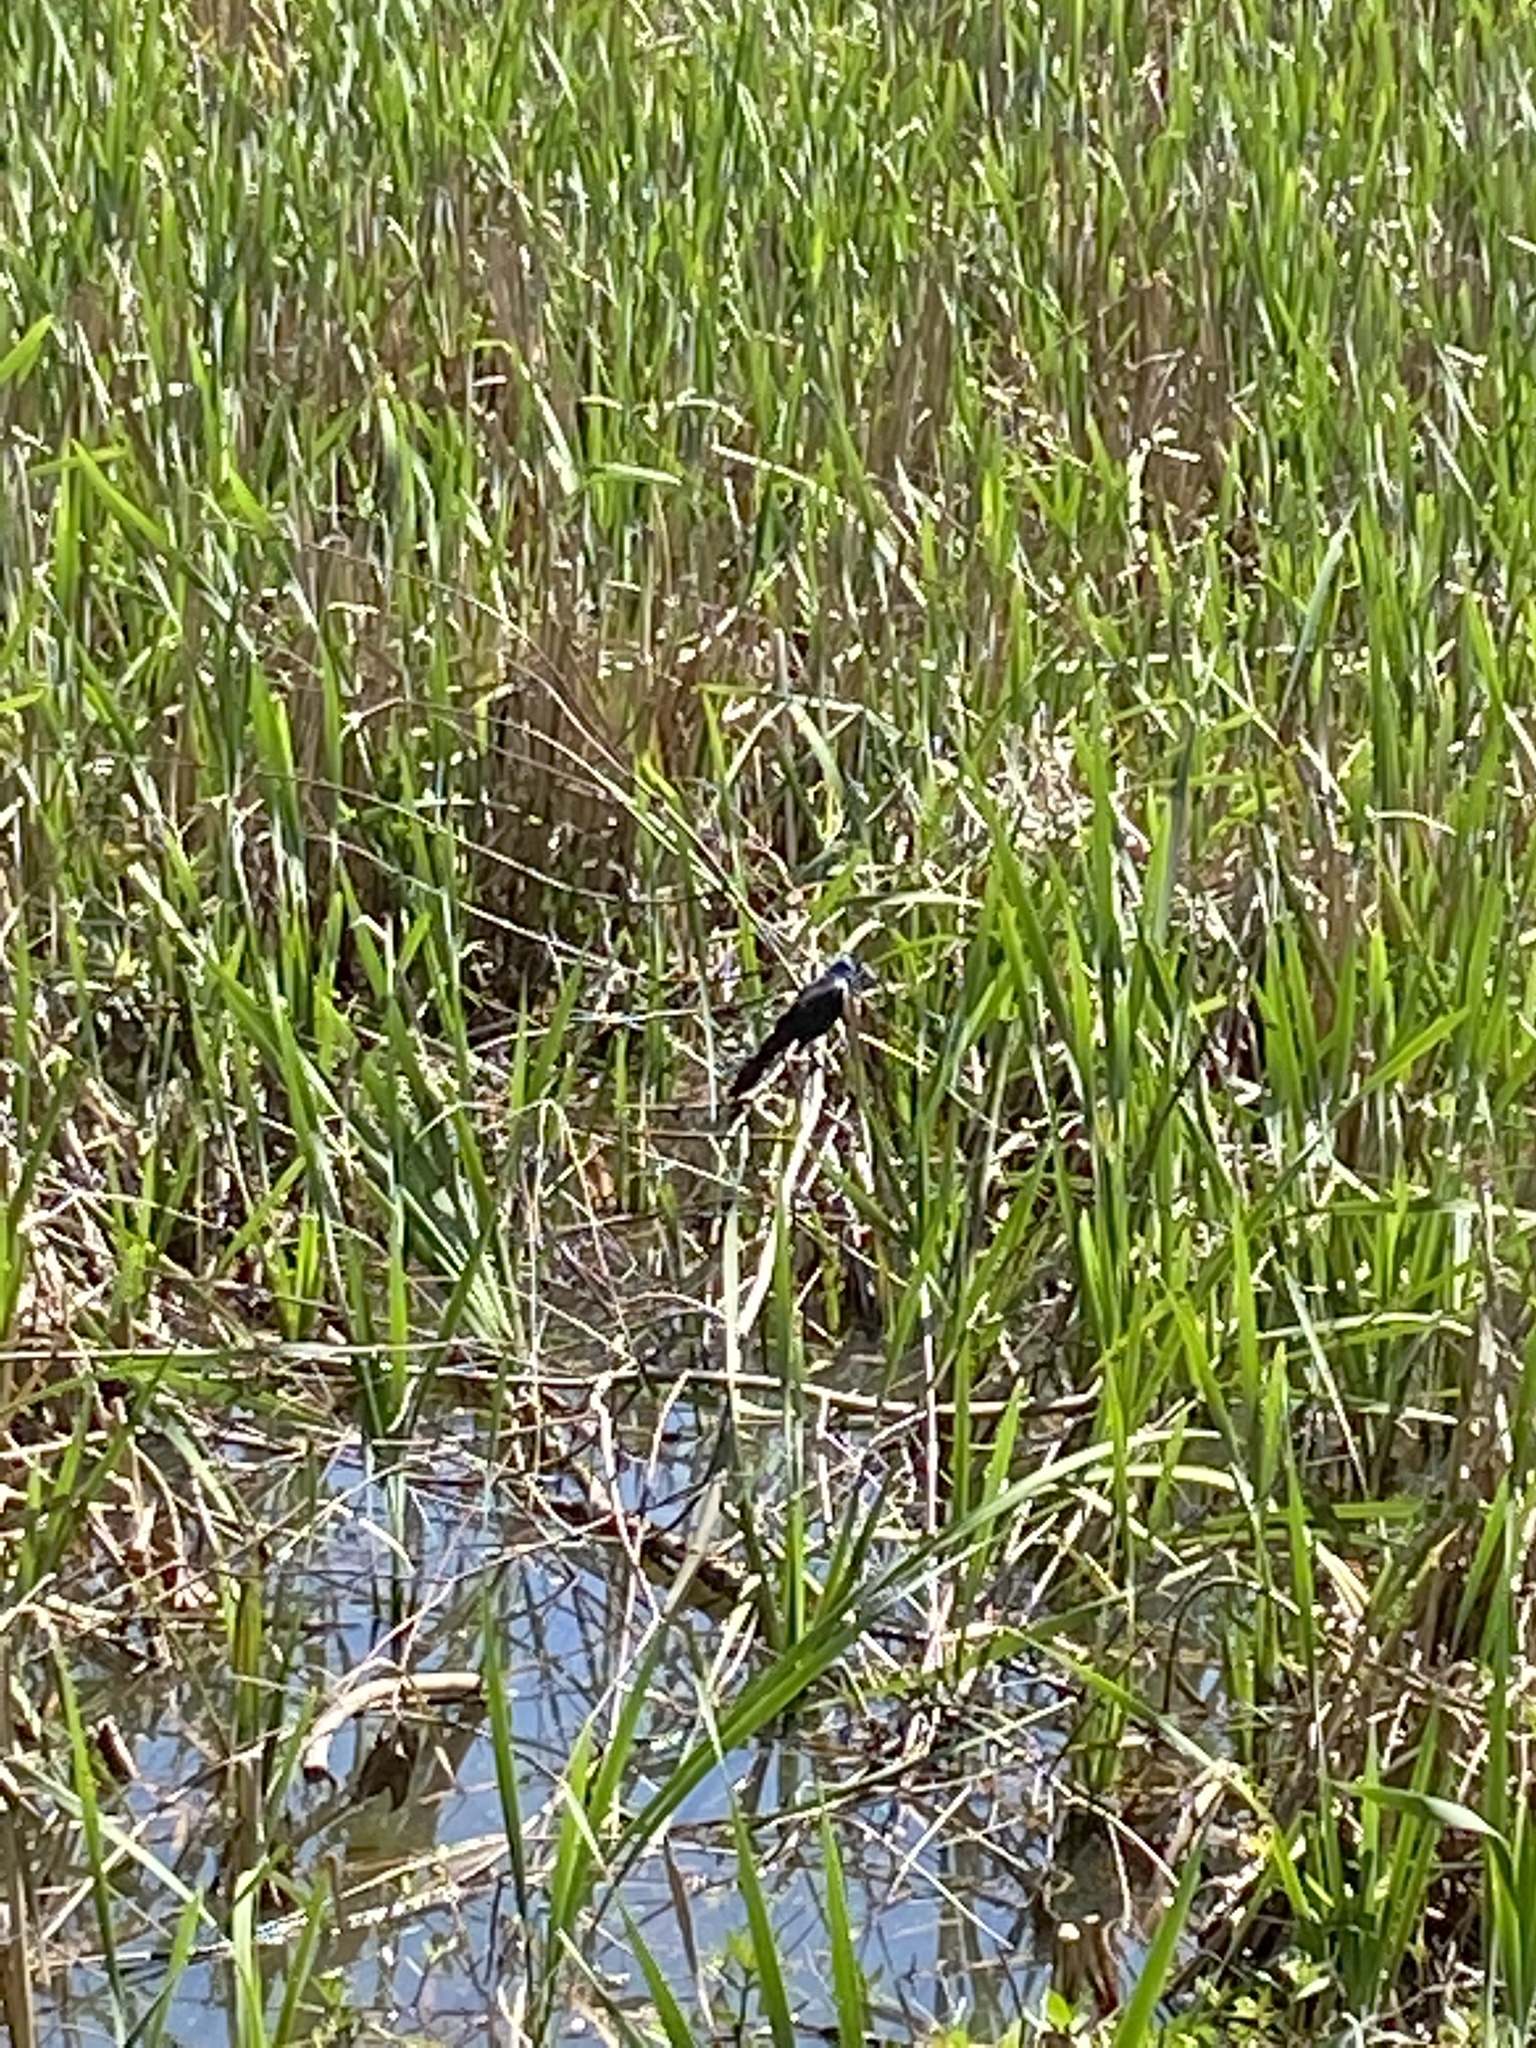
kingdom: Animalia
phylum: Chordata
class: Aves
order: Passeriformes
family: Icteridae
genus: Agelaius
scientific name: Agelaius phoeniceus
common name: Red-winged blackbird
